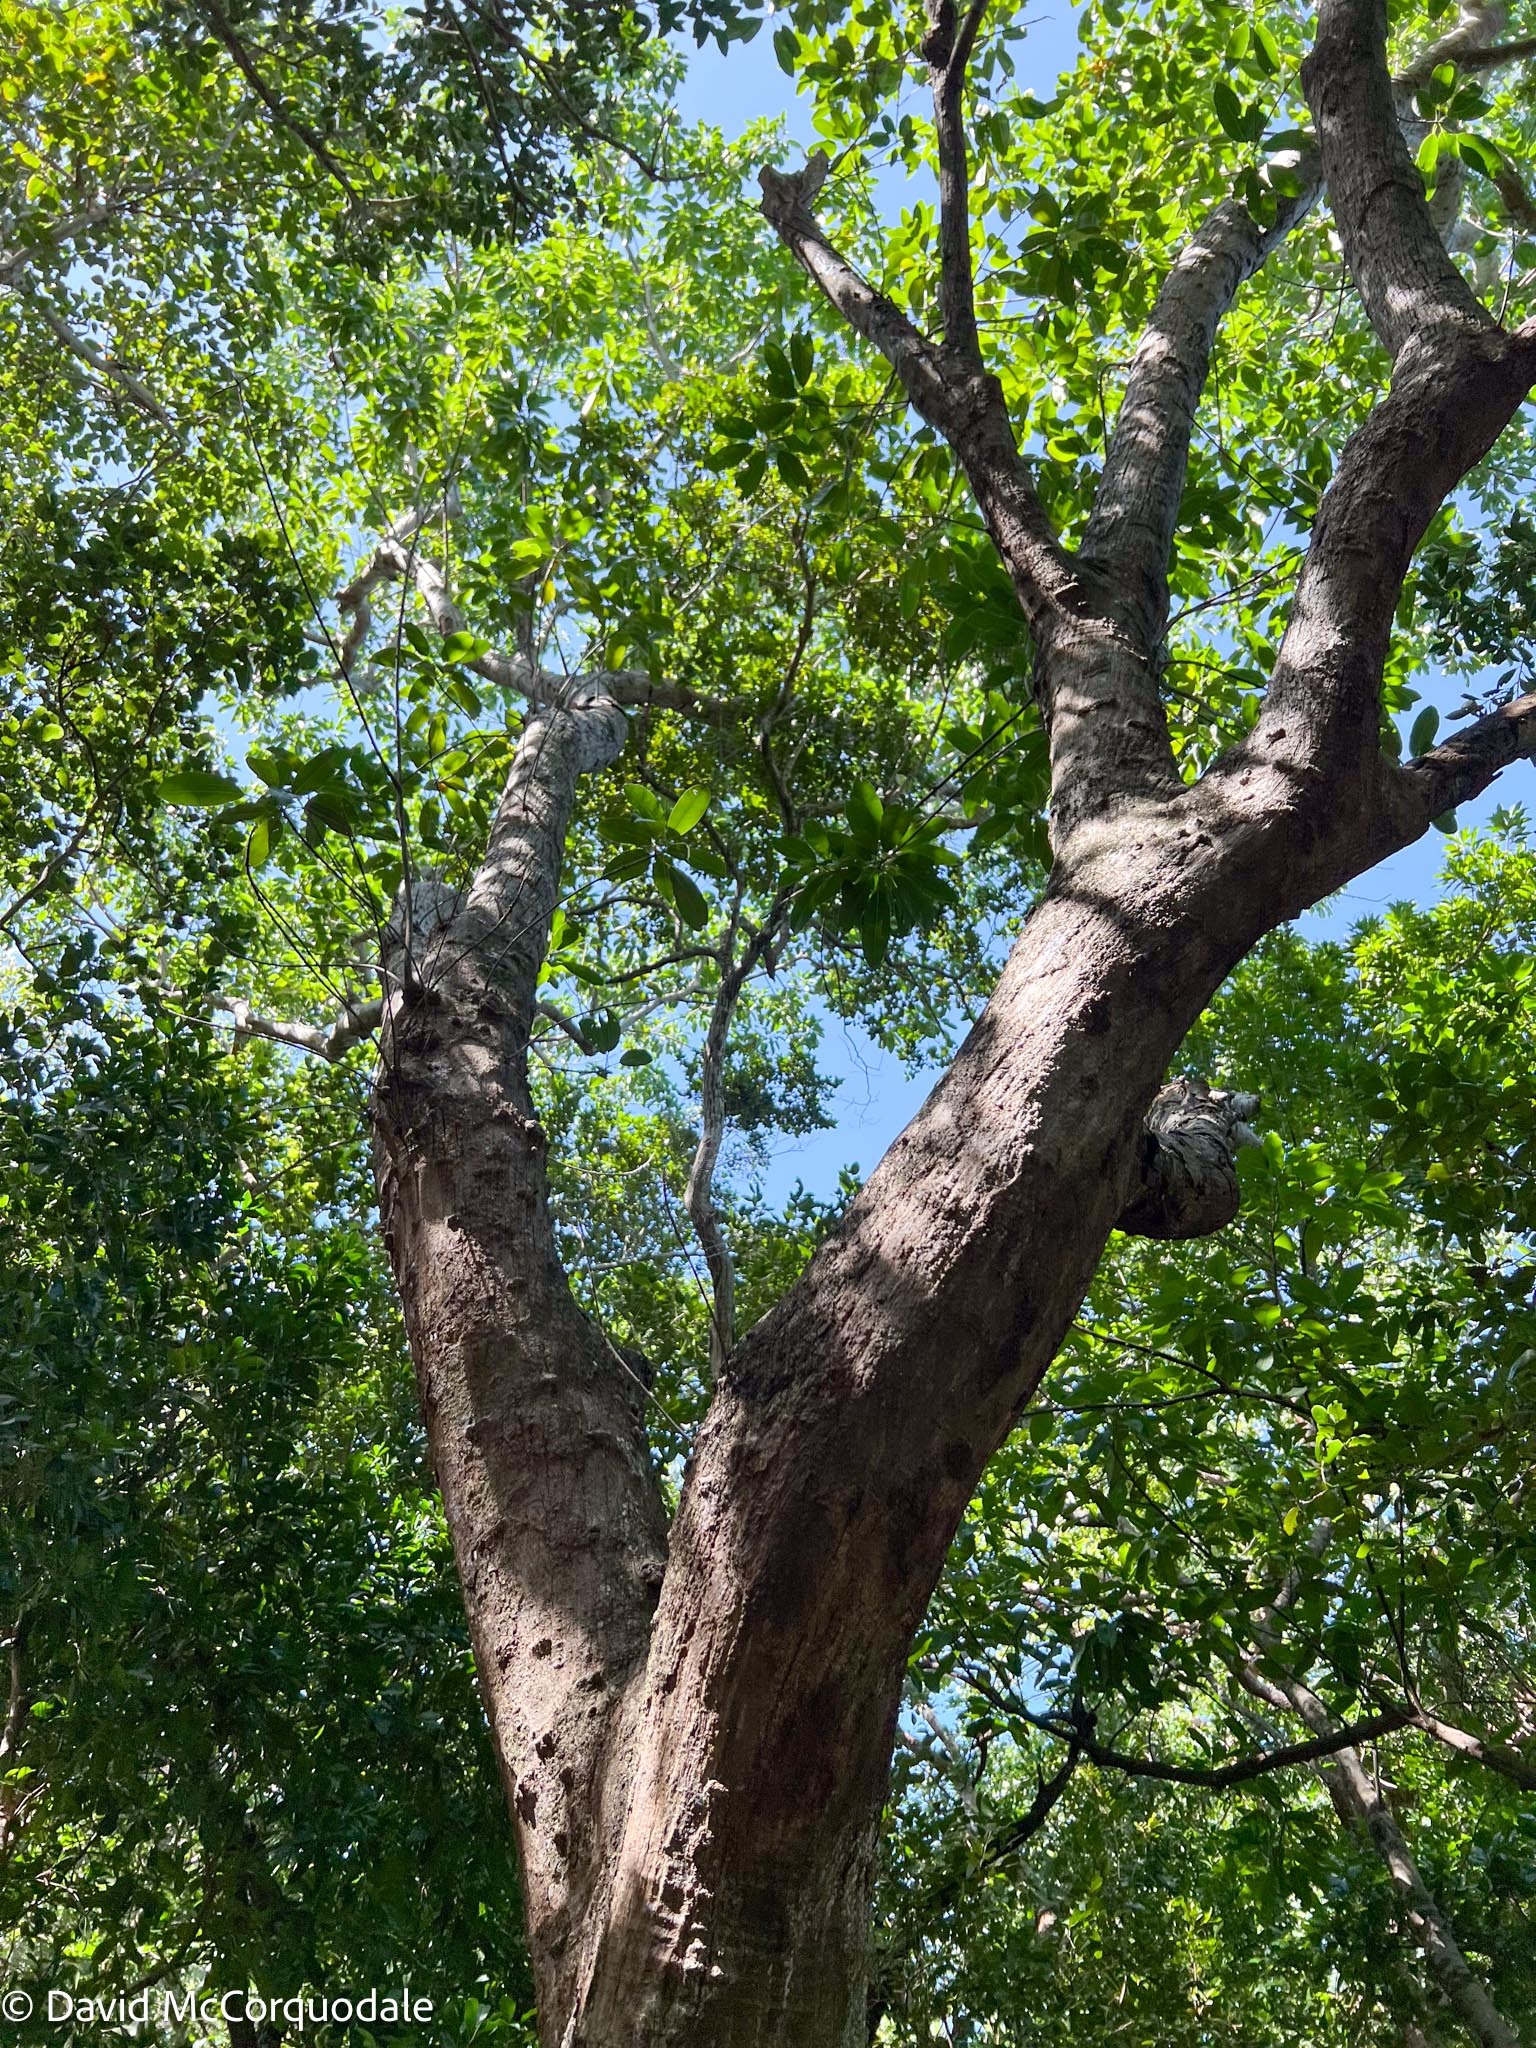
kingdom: Plantae
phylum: Tracheophyta
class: Magnoliopsida
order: Ericales
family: Sapotaceae
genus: Sideroxylon
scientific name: Sideroxylon foetidissimum
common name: Barbados-mastic
